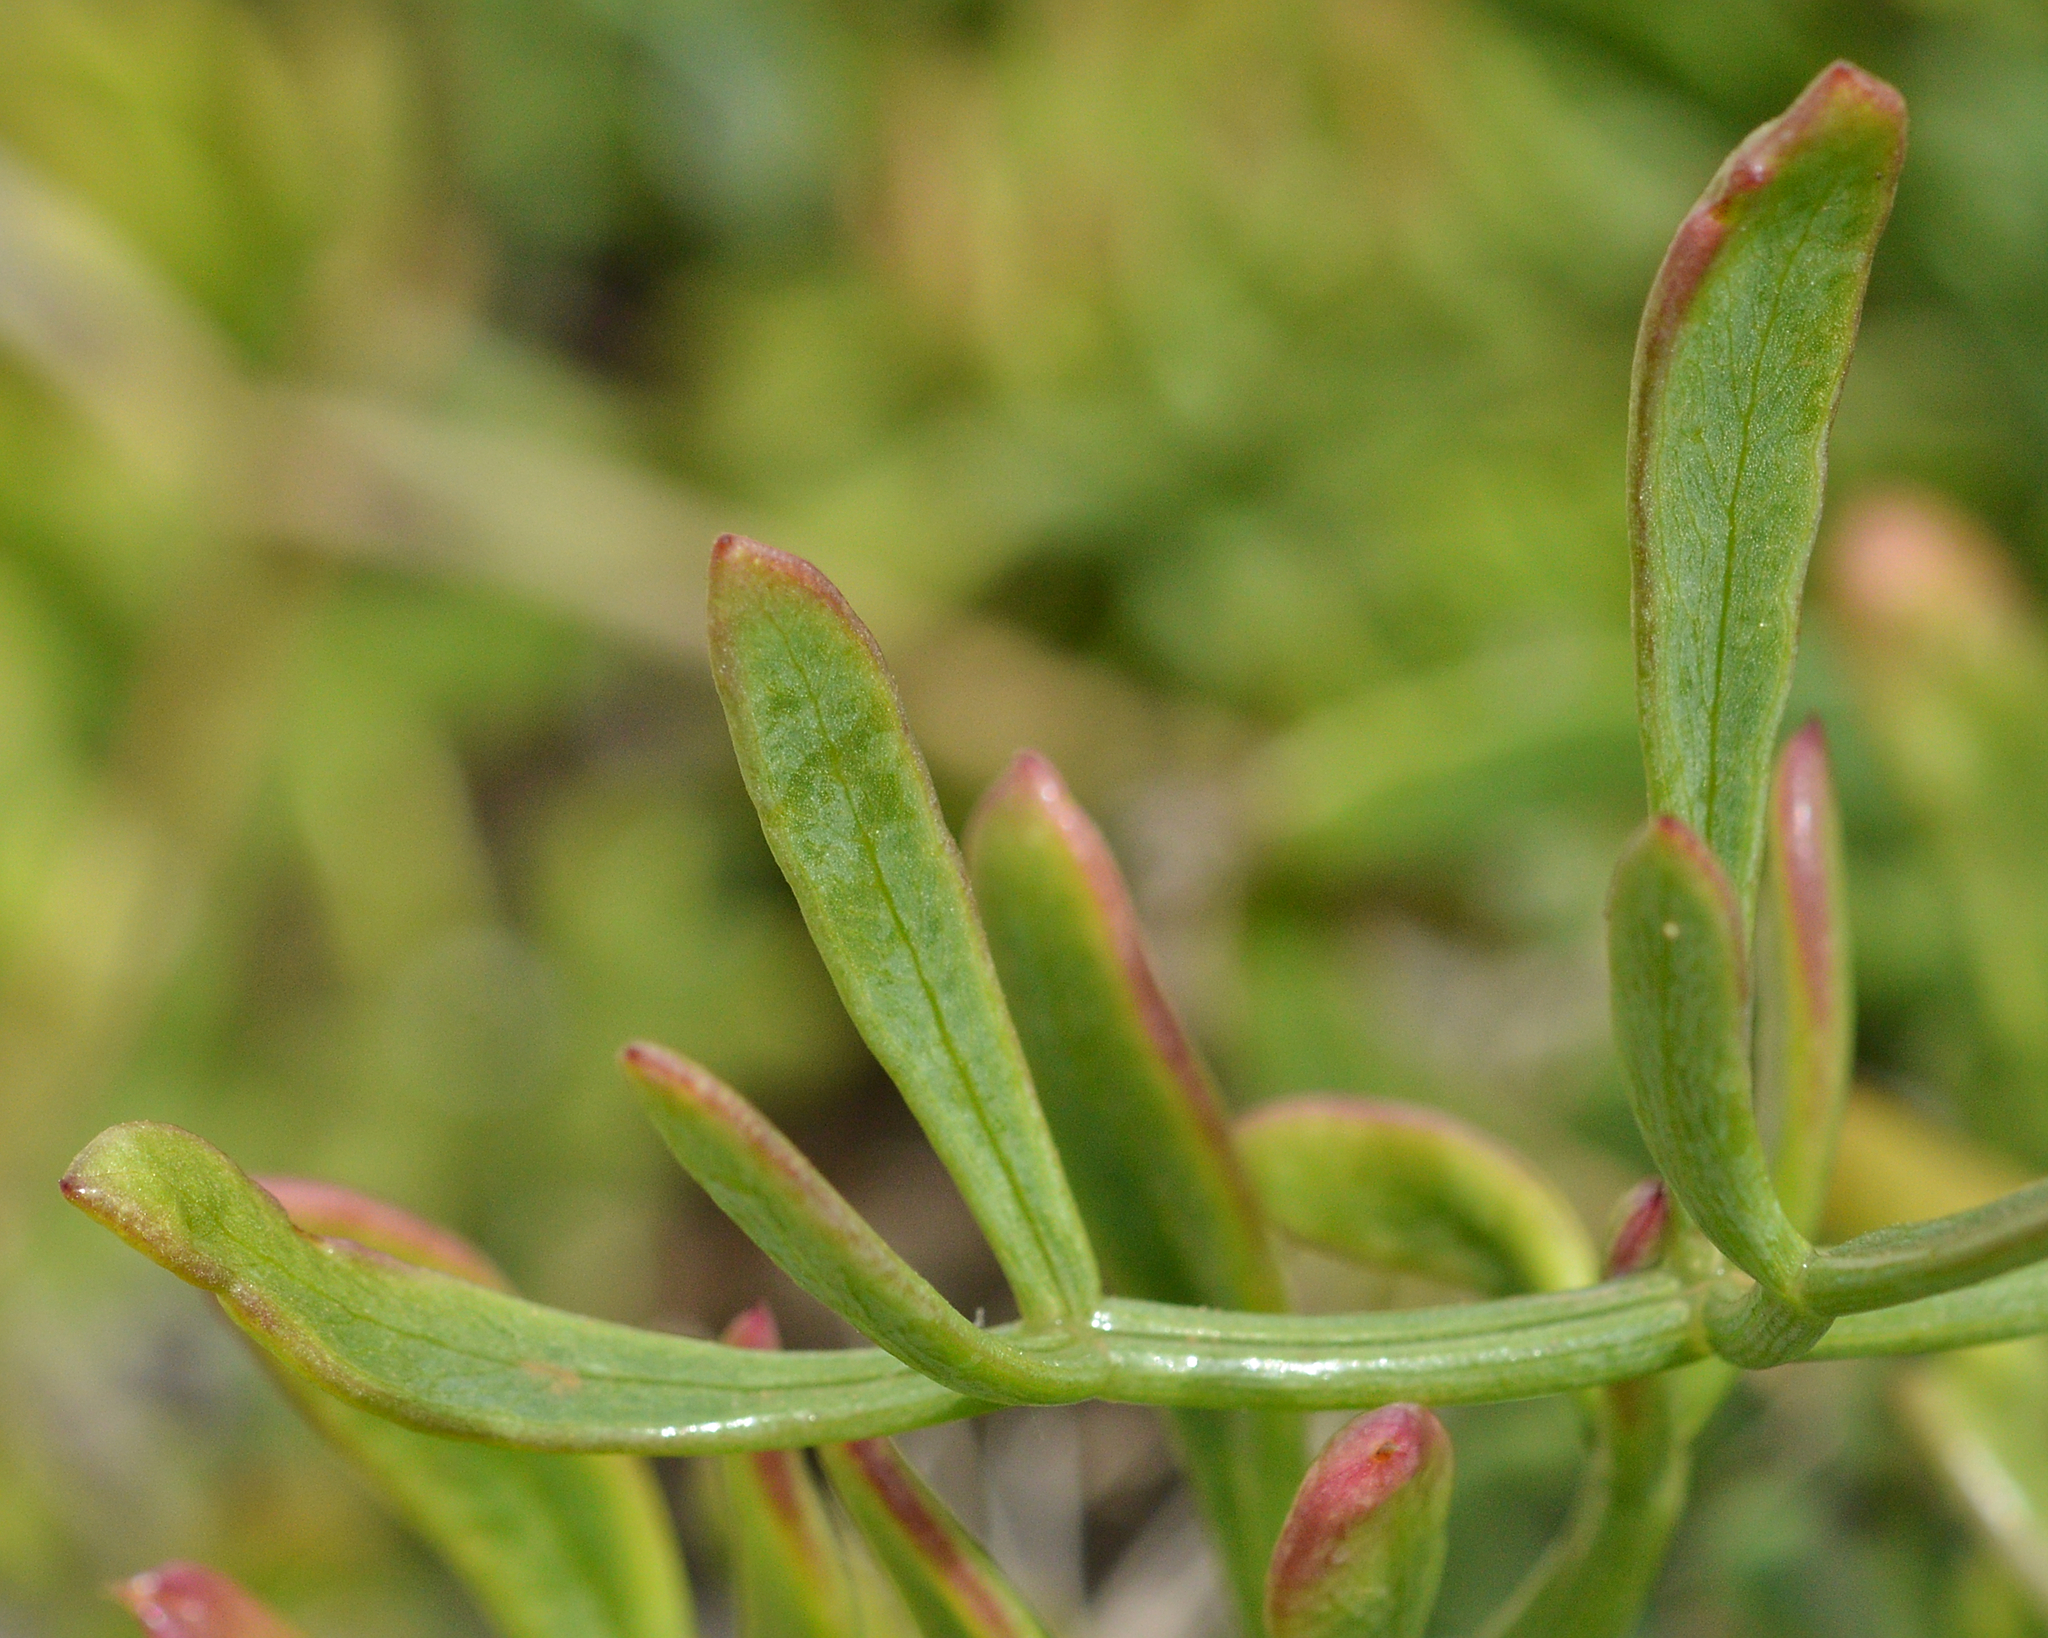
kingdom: Plantae
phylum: Tracheophyta
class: Magnoliopsida
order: Apiales
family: Apiaceae
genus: Crithmum
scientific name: Crithmum maritimum
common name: Rock samphire
